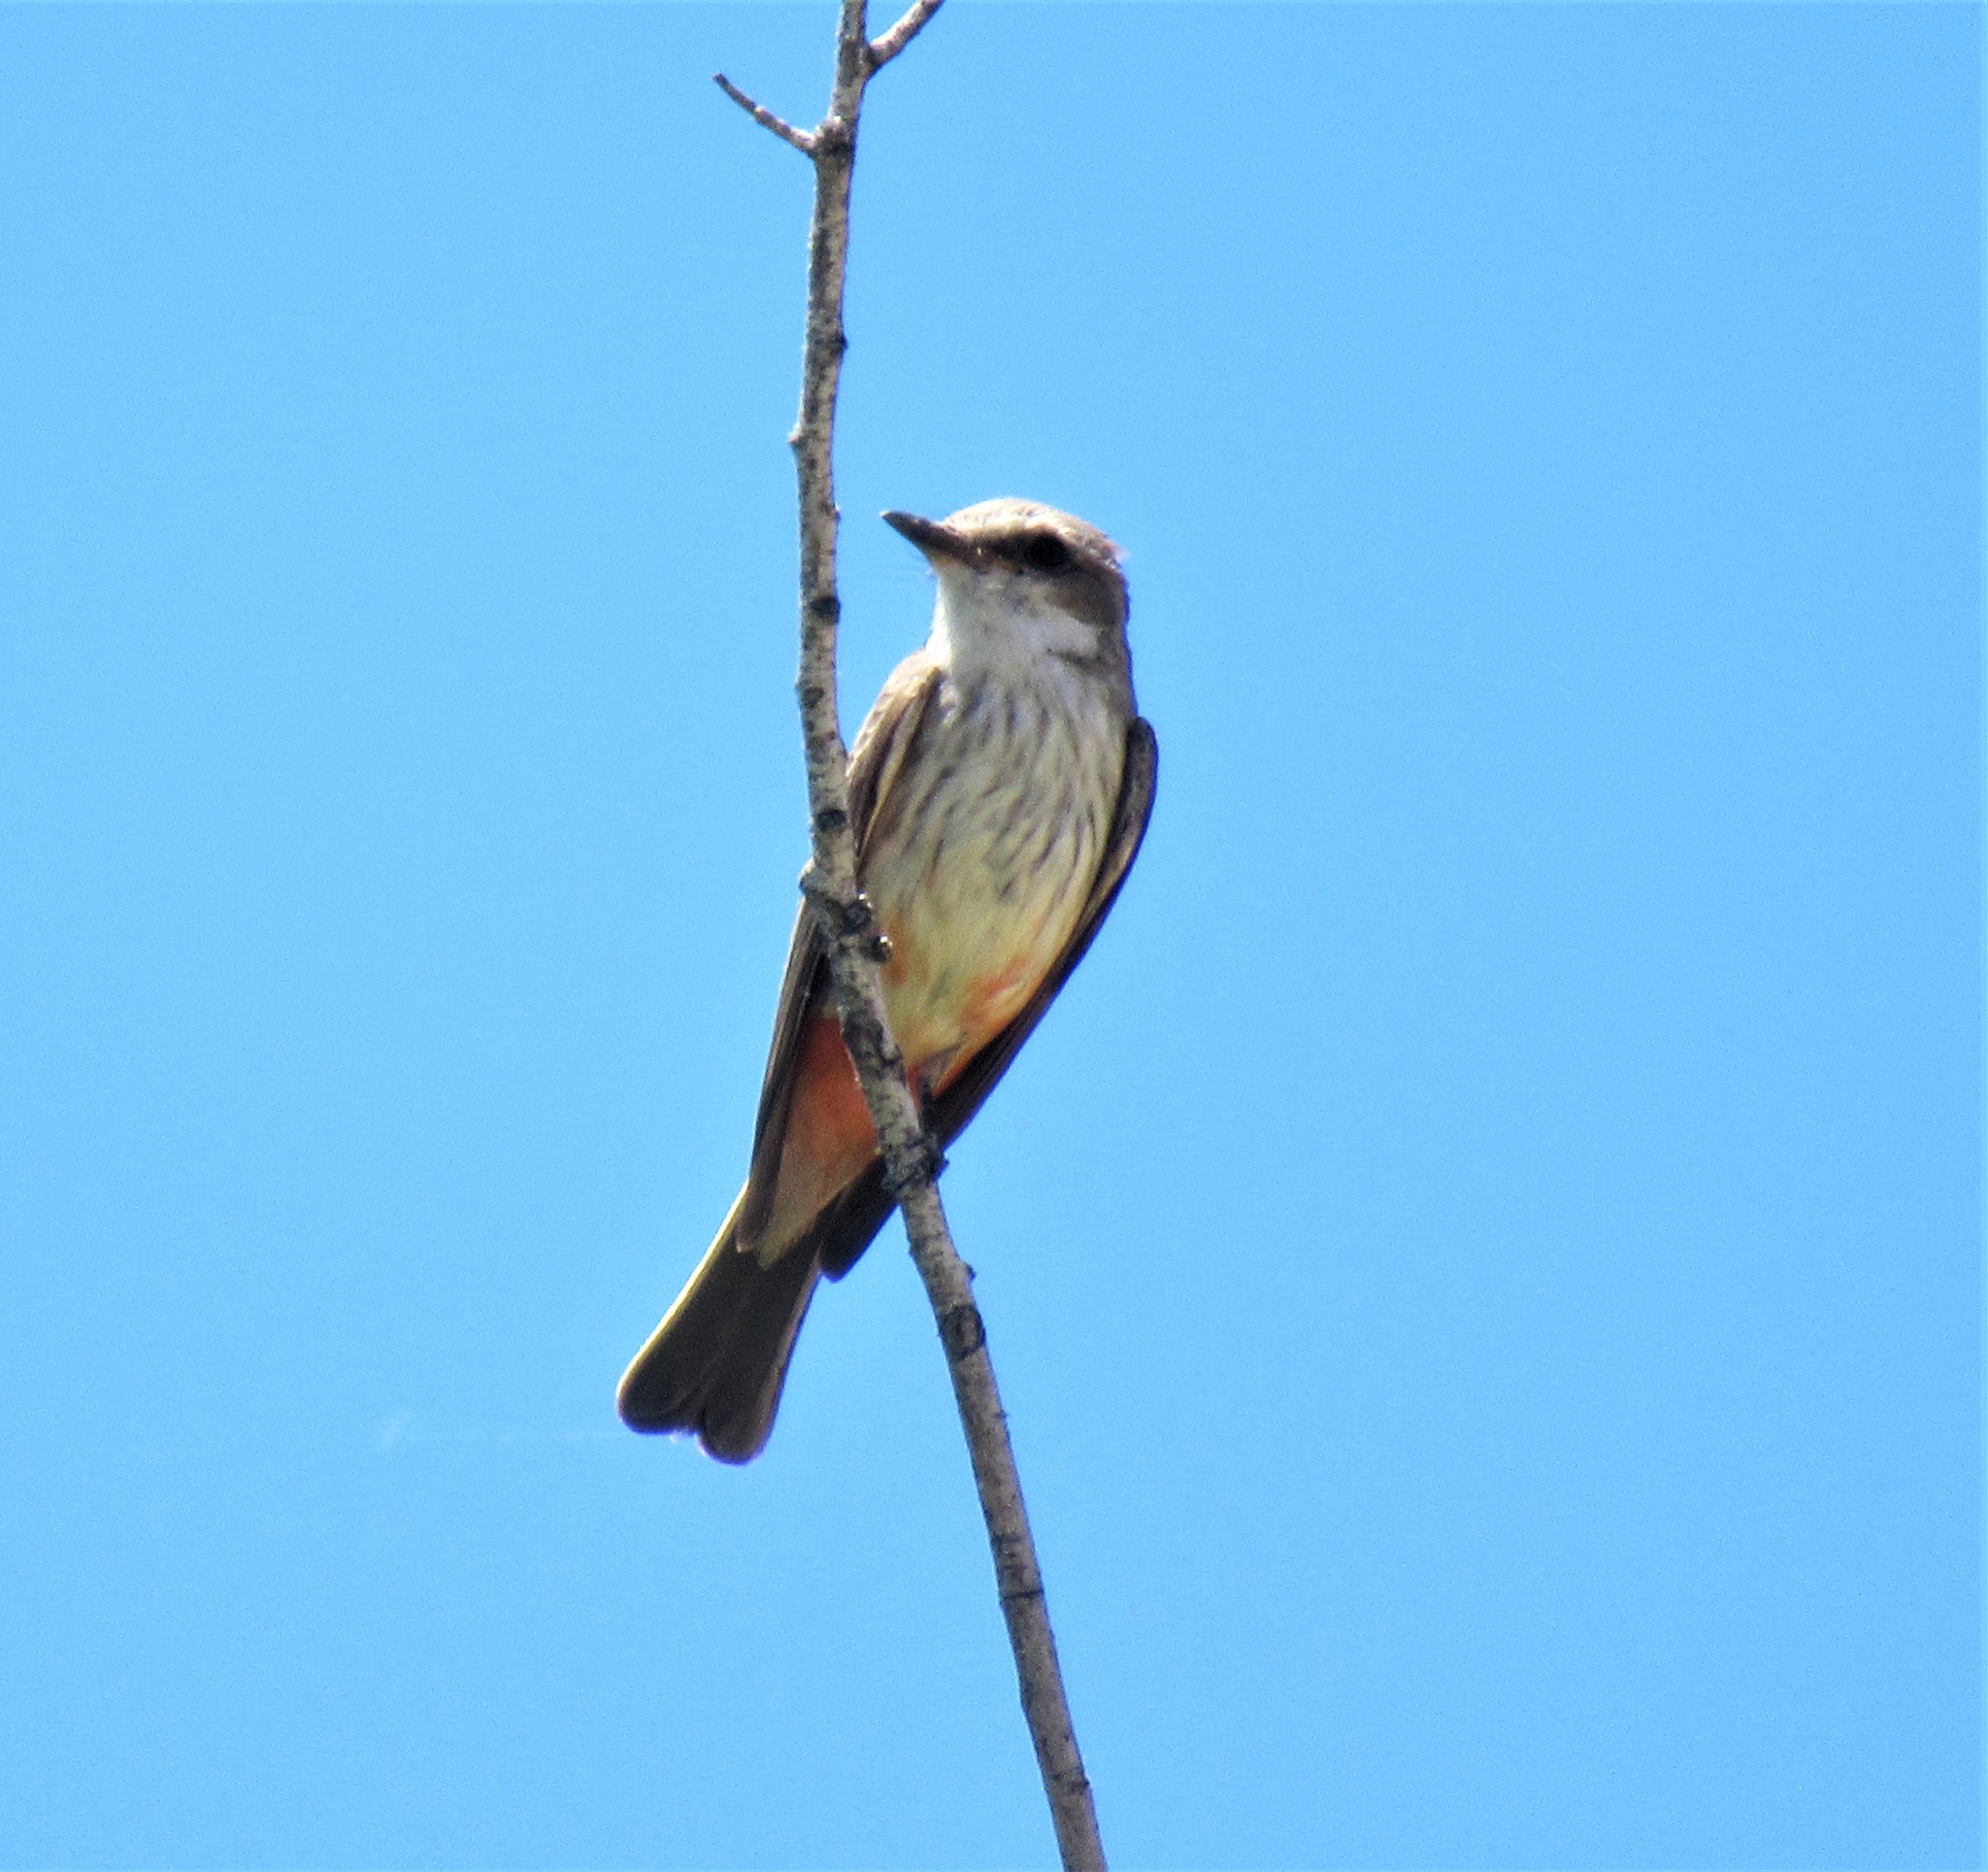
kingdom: Animalia
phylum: Chordata
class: Aves
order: Passeriformes
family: Tyrannidae
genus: Pyrocephalus
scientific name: Pyrocephalus rubinus
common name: Vermilion flycatcher
